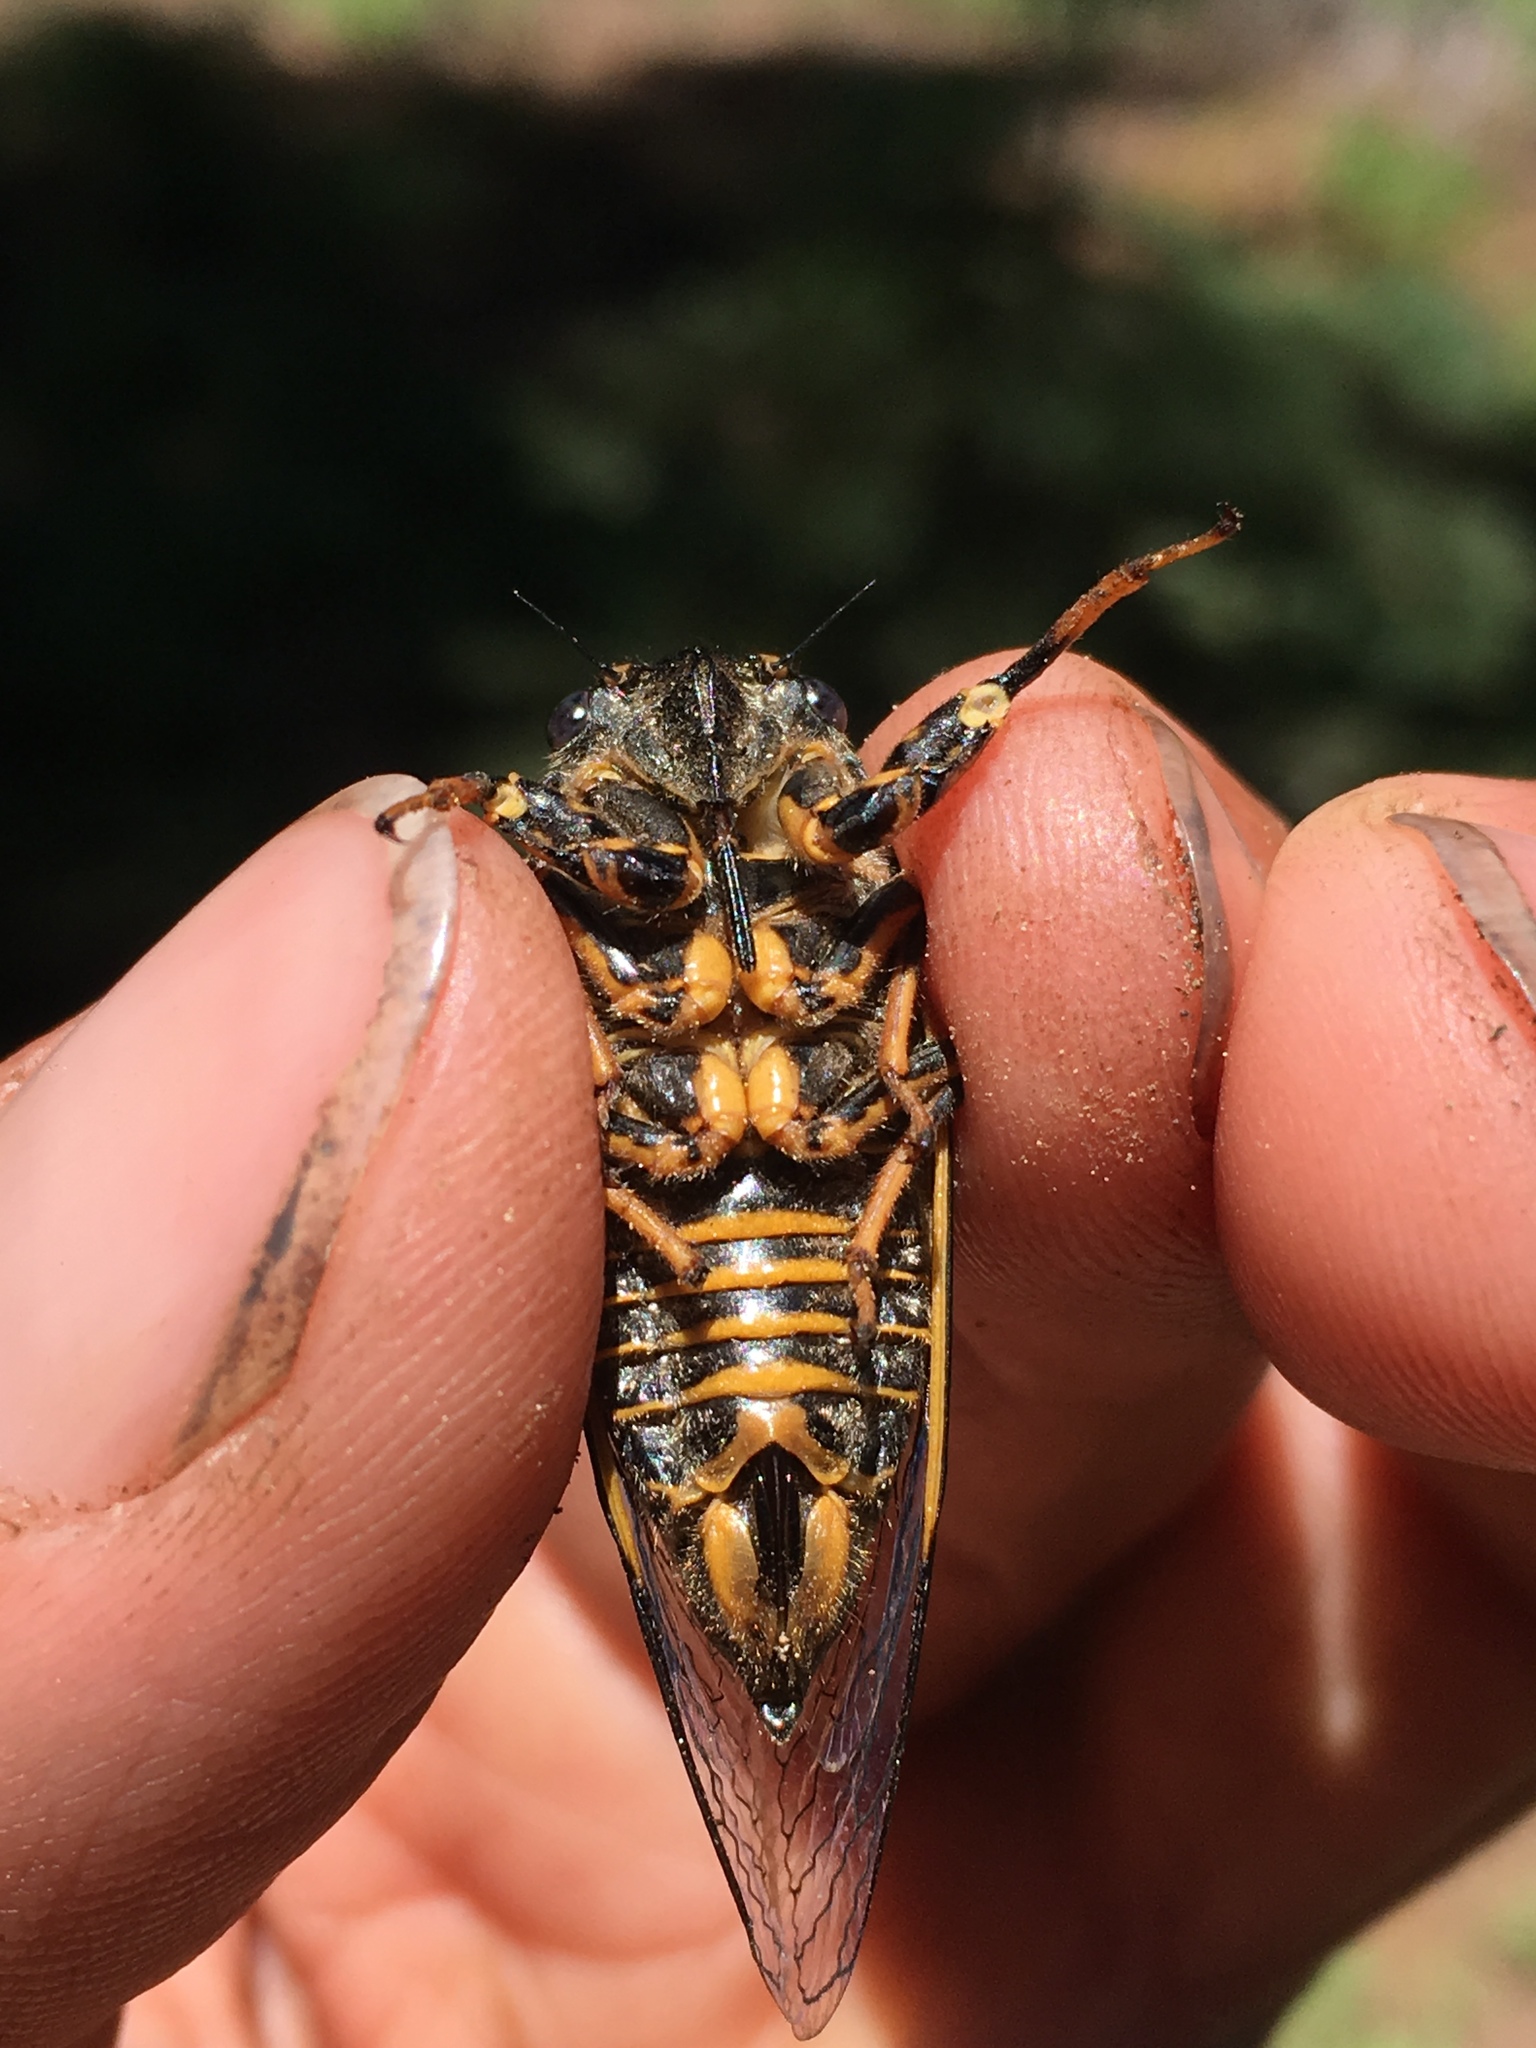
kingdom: Animalia
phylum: Arthropoda
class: Insecta
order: Hemiptera
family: Cicadidae
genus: Okanagana
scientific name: Okanagana nigrodorsata
